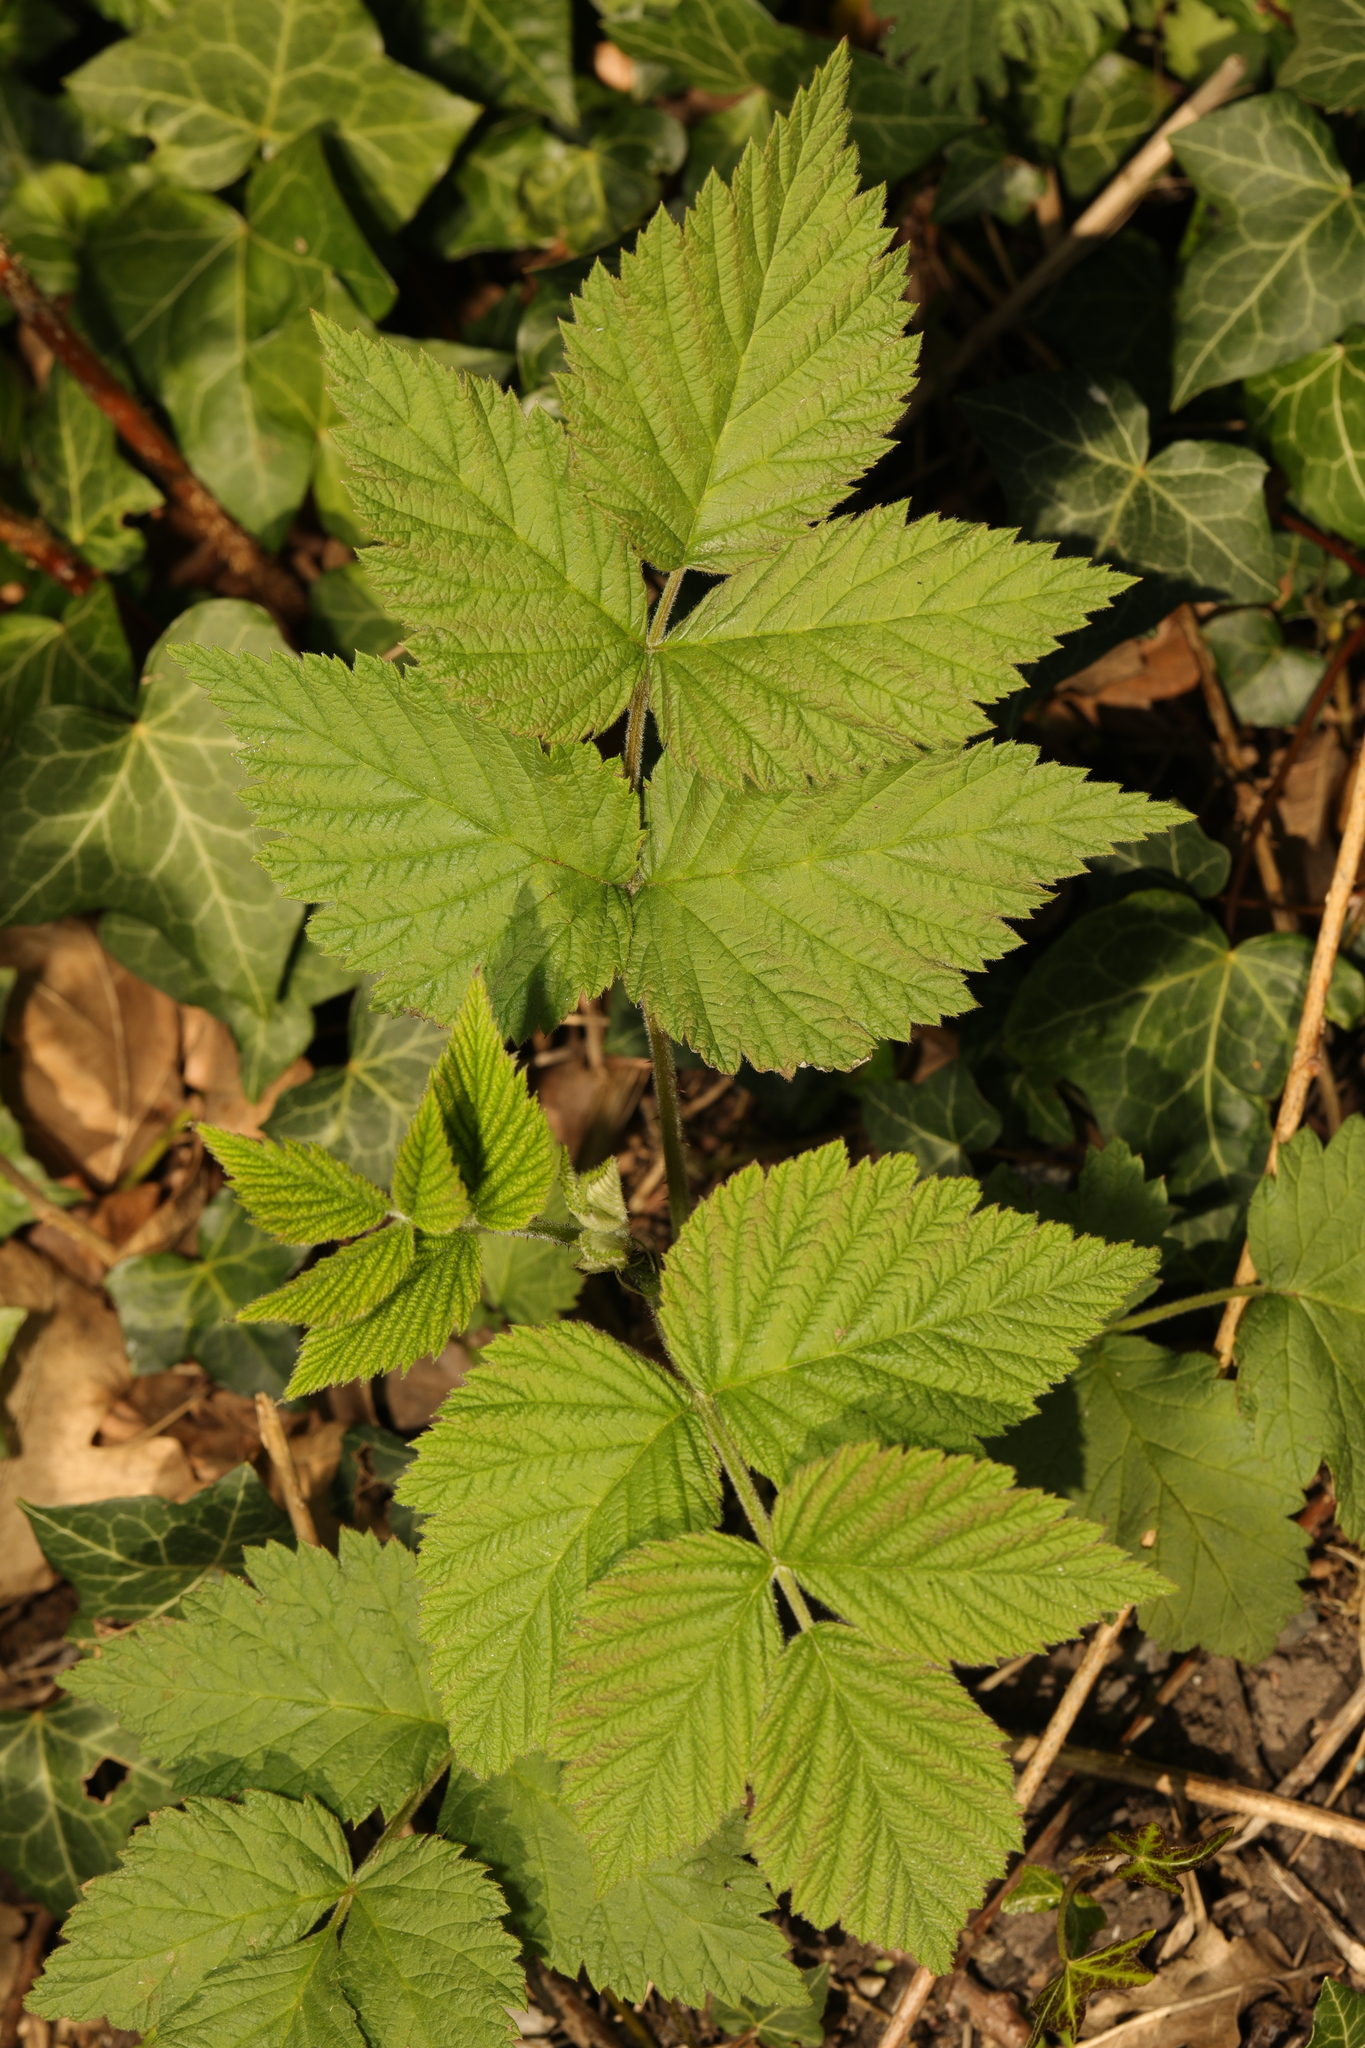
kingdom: Plantae
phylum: Tracheophyta
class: Magnoliopsida
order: Rosales
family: Rosaceae
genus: Rubus
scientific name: Rubus idaeus
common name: Raspberry
